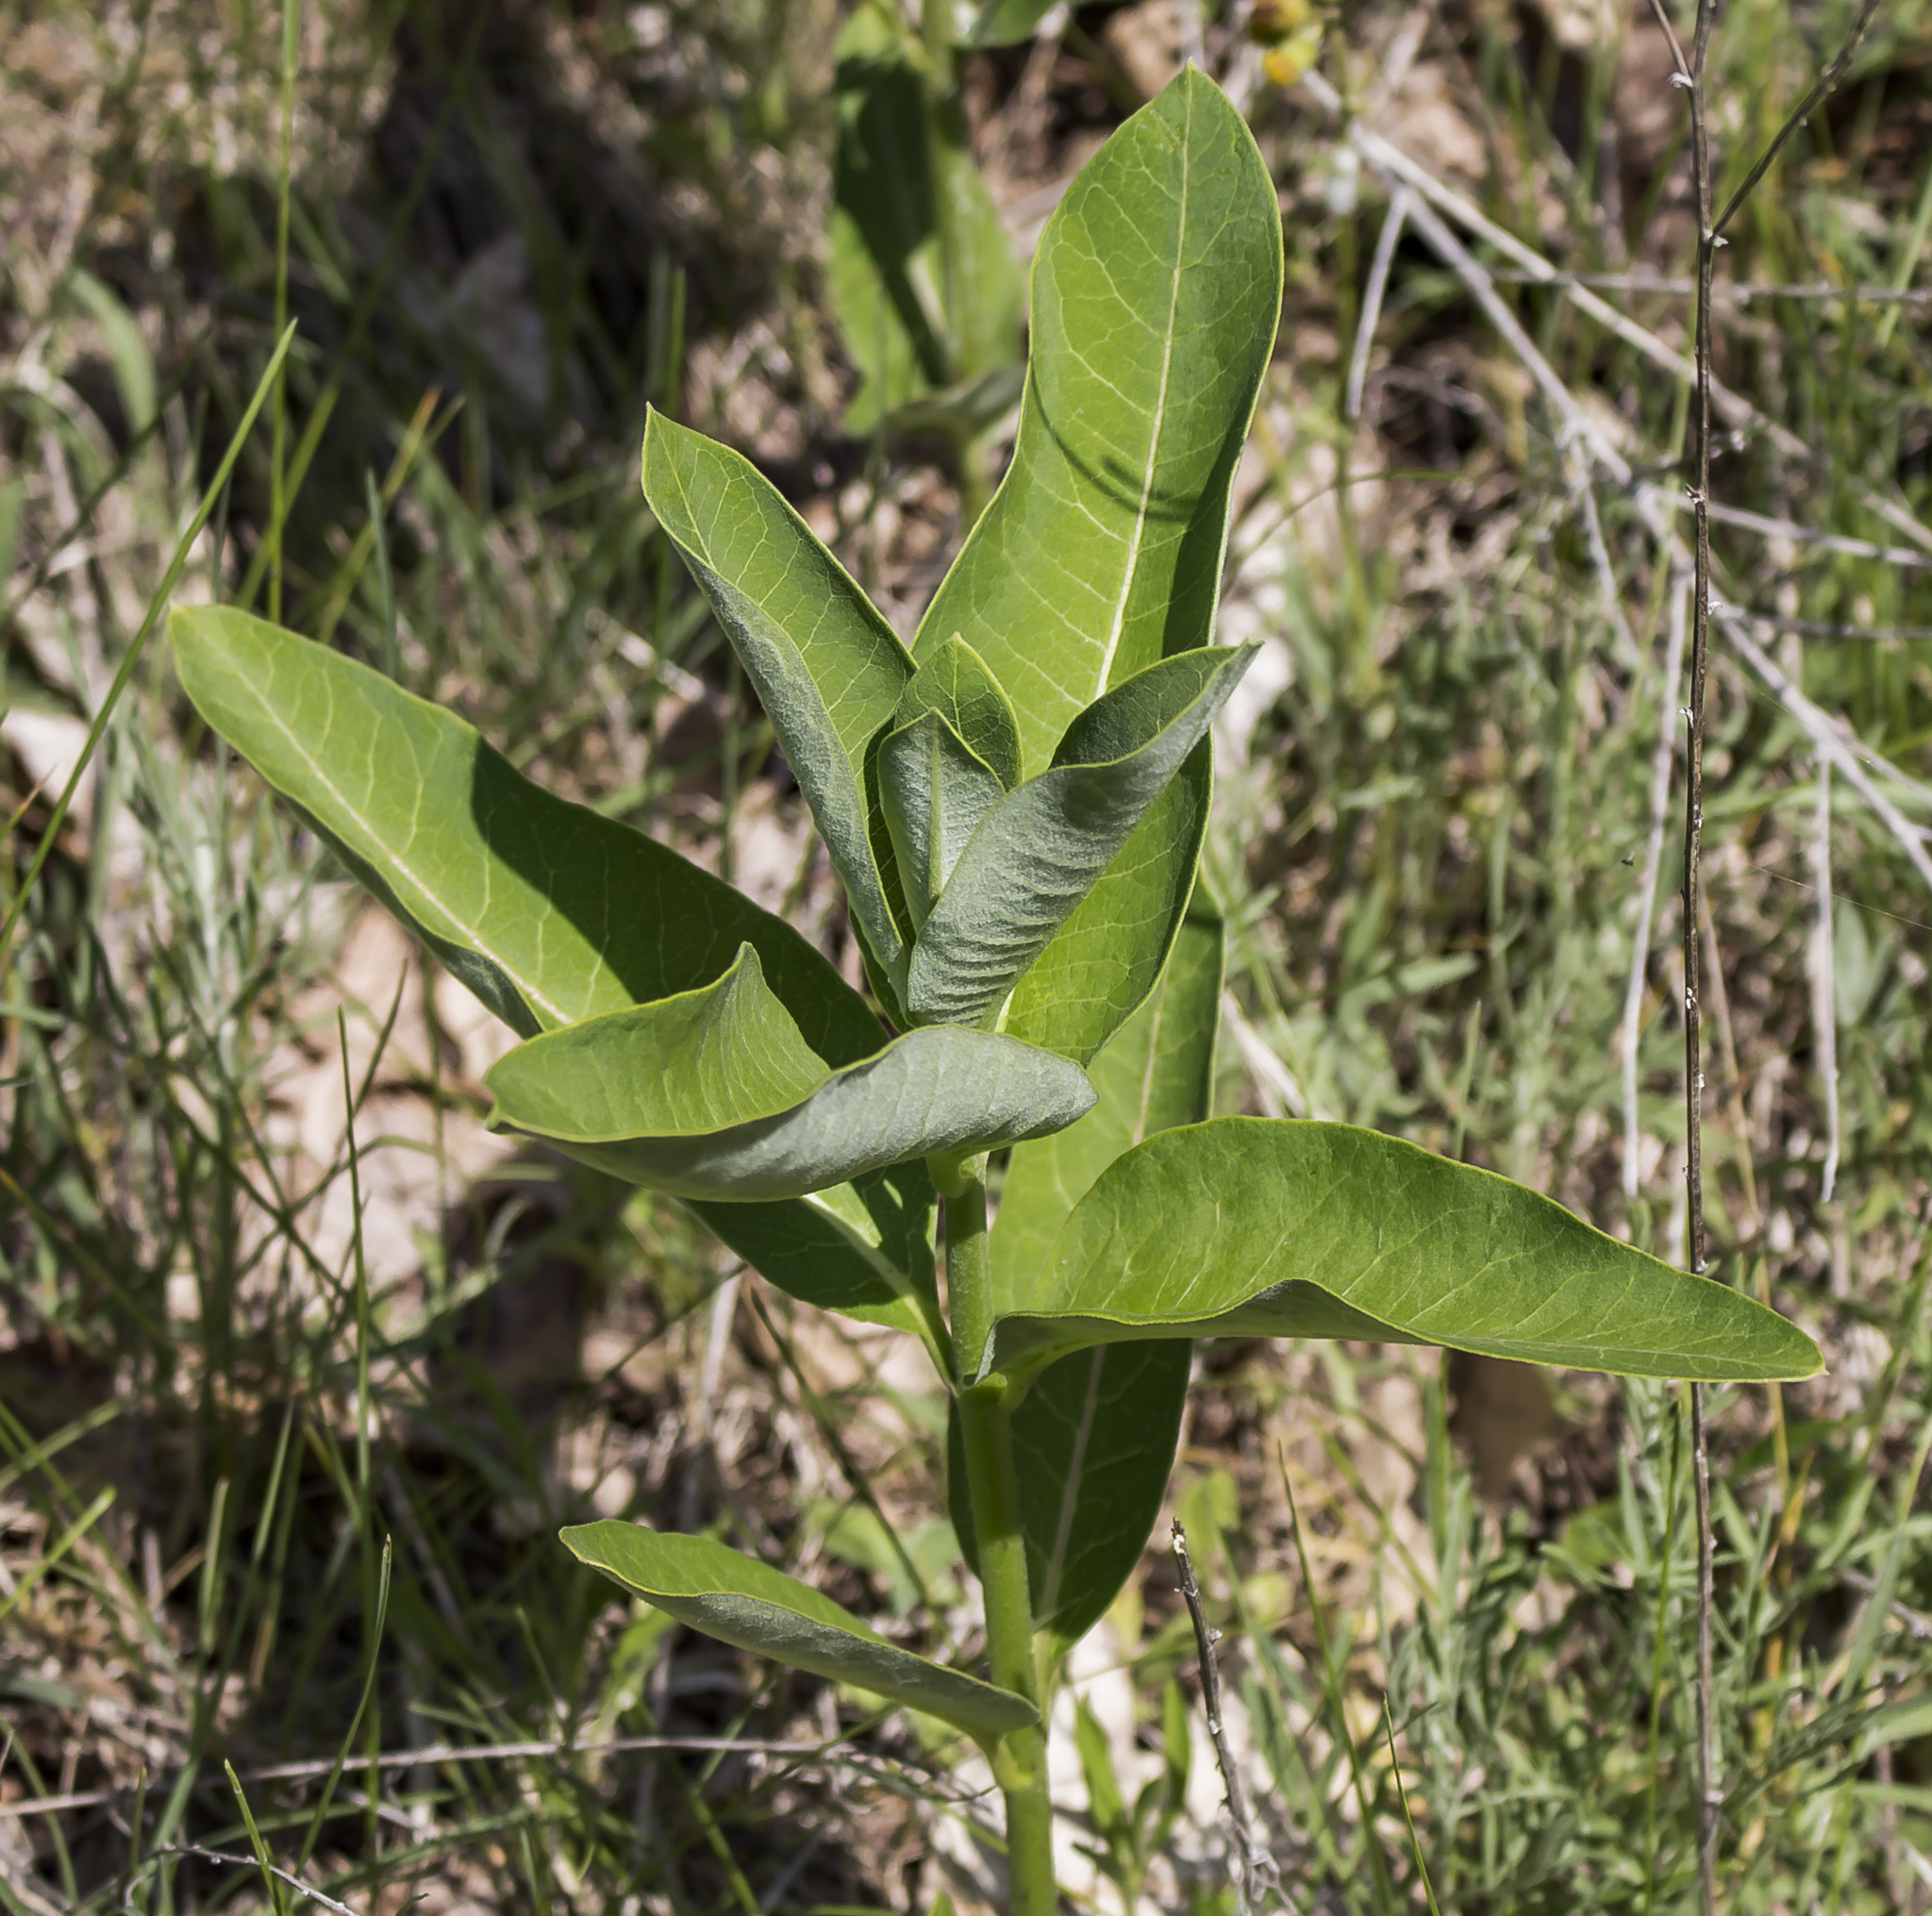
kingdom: Plantae
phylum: Tracheophyta
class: Magnoliopsida
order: Gentianales
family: Apocynaceae
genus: Asclepias
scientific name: Asclepias syriaca
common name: Common milkweed
